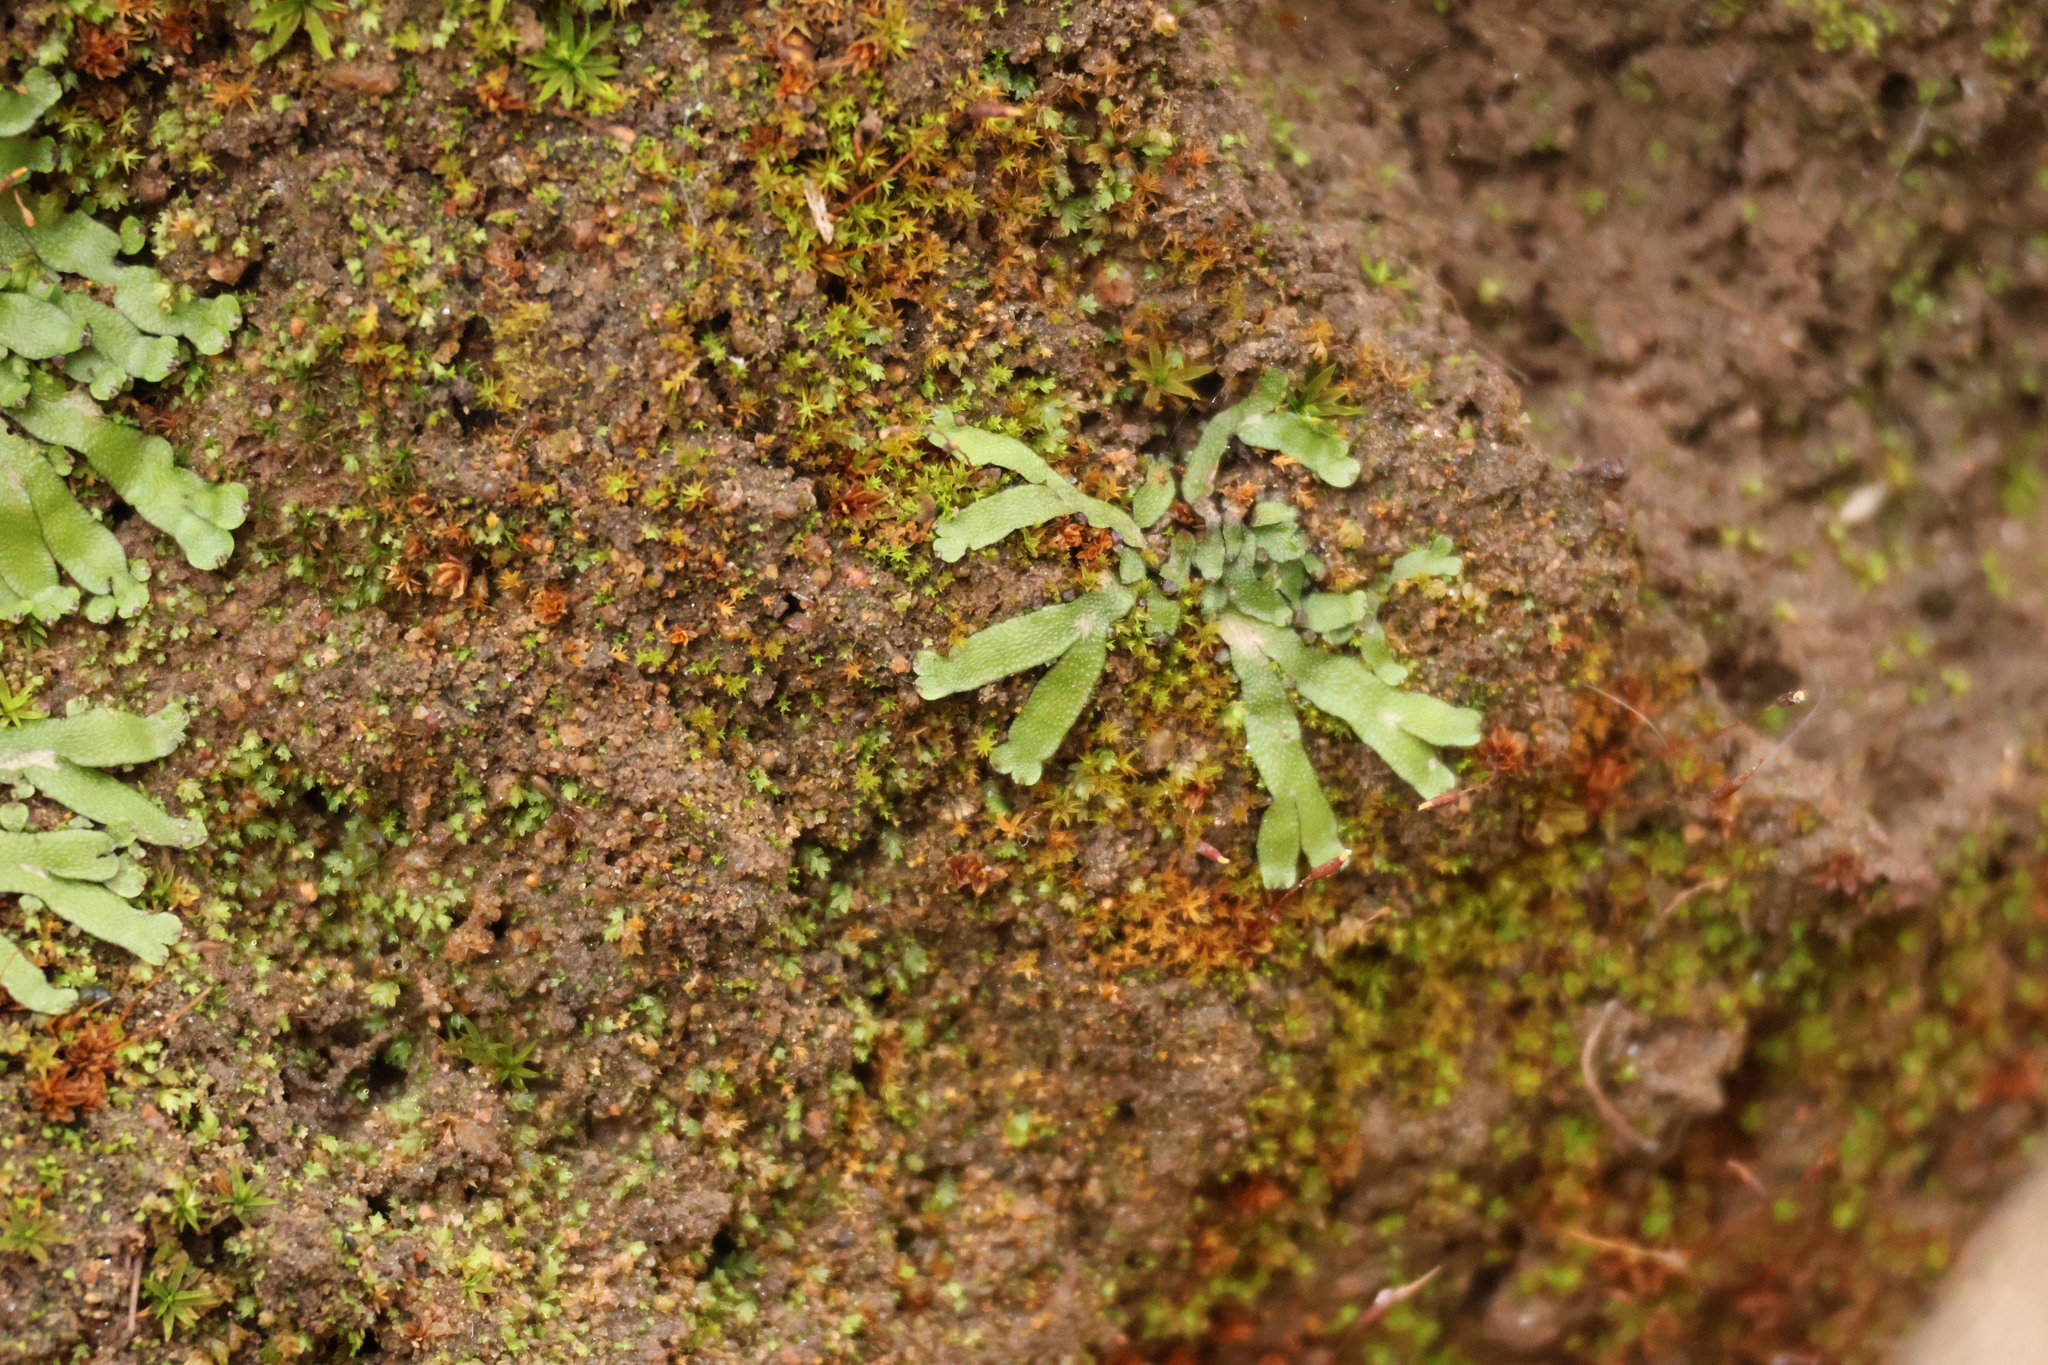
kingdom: Plantae
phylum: Marchantiophyta
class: Marchantiopsida
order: Marchantiales
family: Targioniaceae
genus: Targionia
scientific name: Targionia hypophylla
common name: Orobus-seed liverwort
